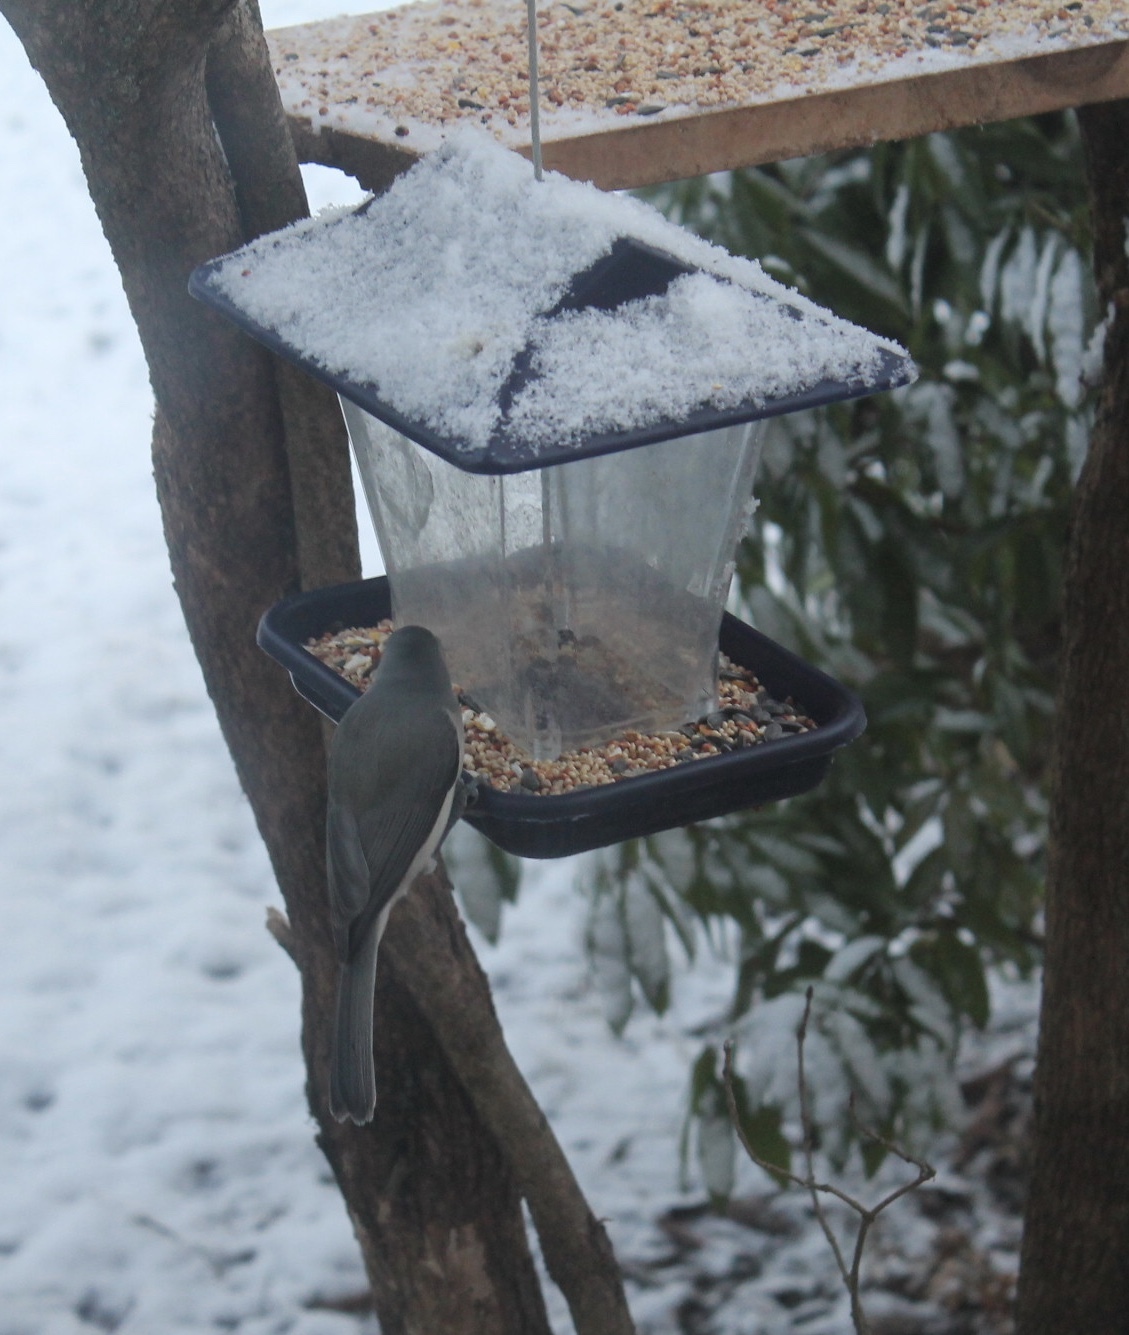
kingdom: Animalia
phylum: Chordata
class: Aves
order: Passeriformes
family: Paridae
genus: Baeolophus
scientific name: Baeolophus bicolor
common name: Tufted titmouse
